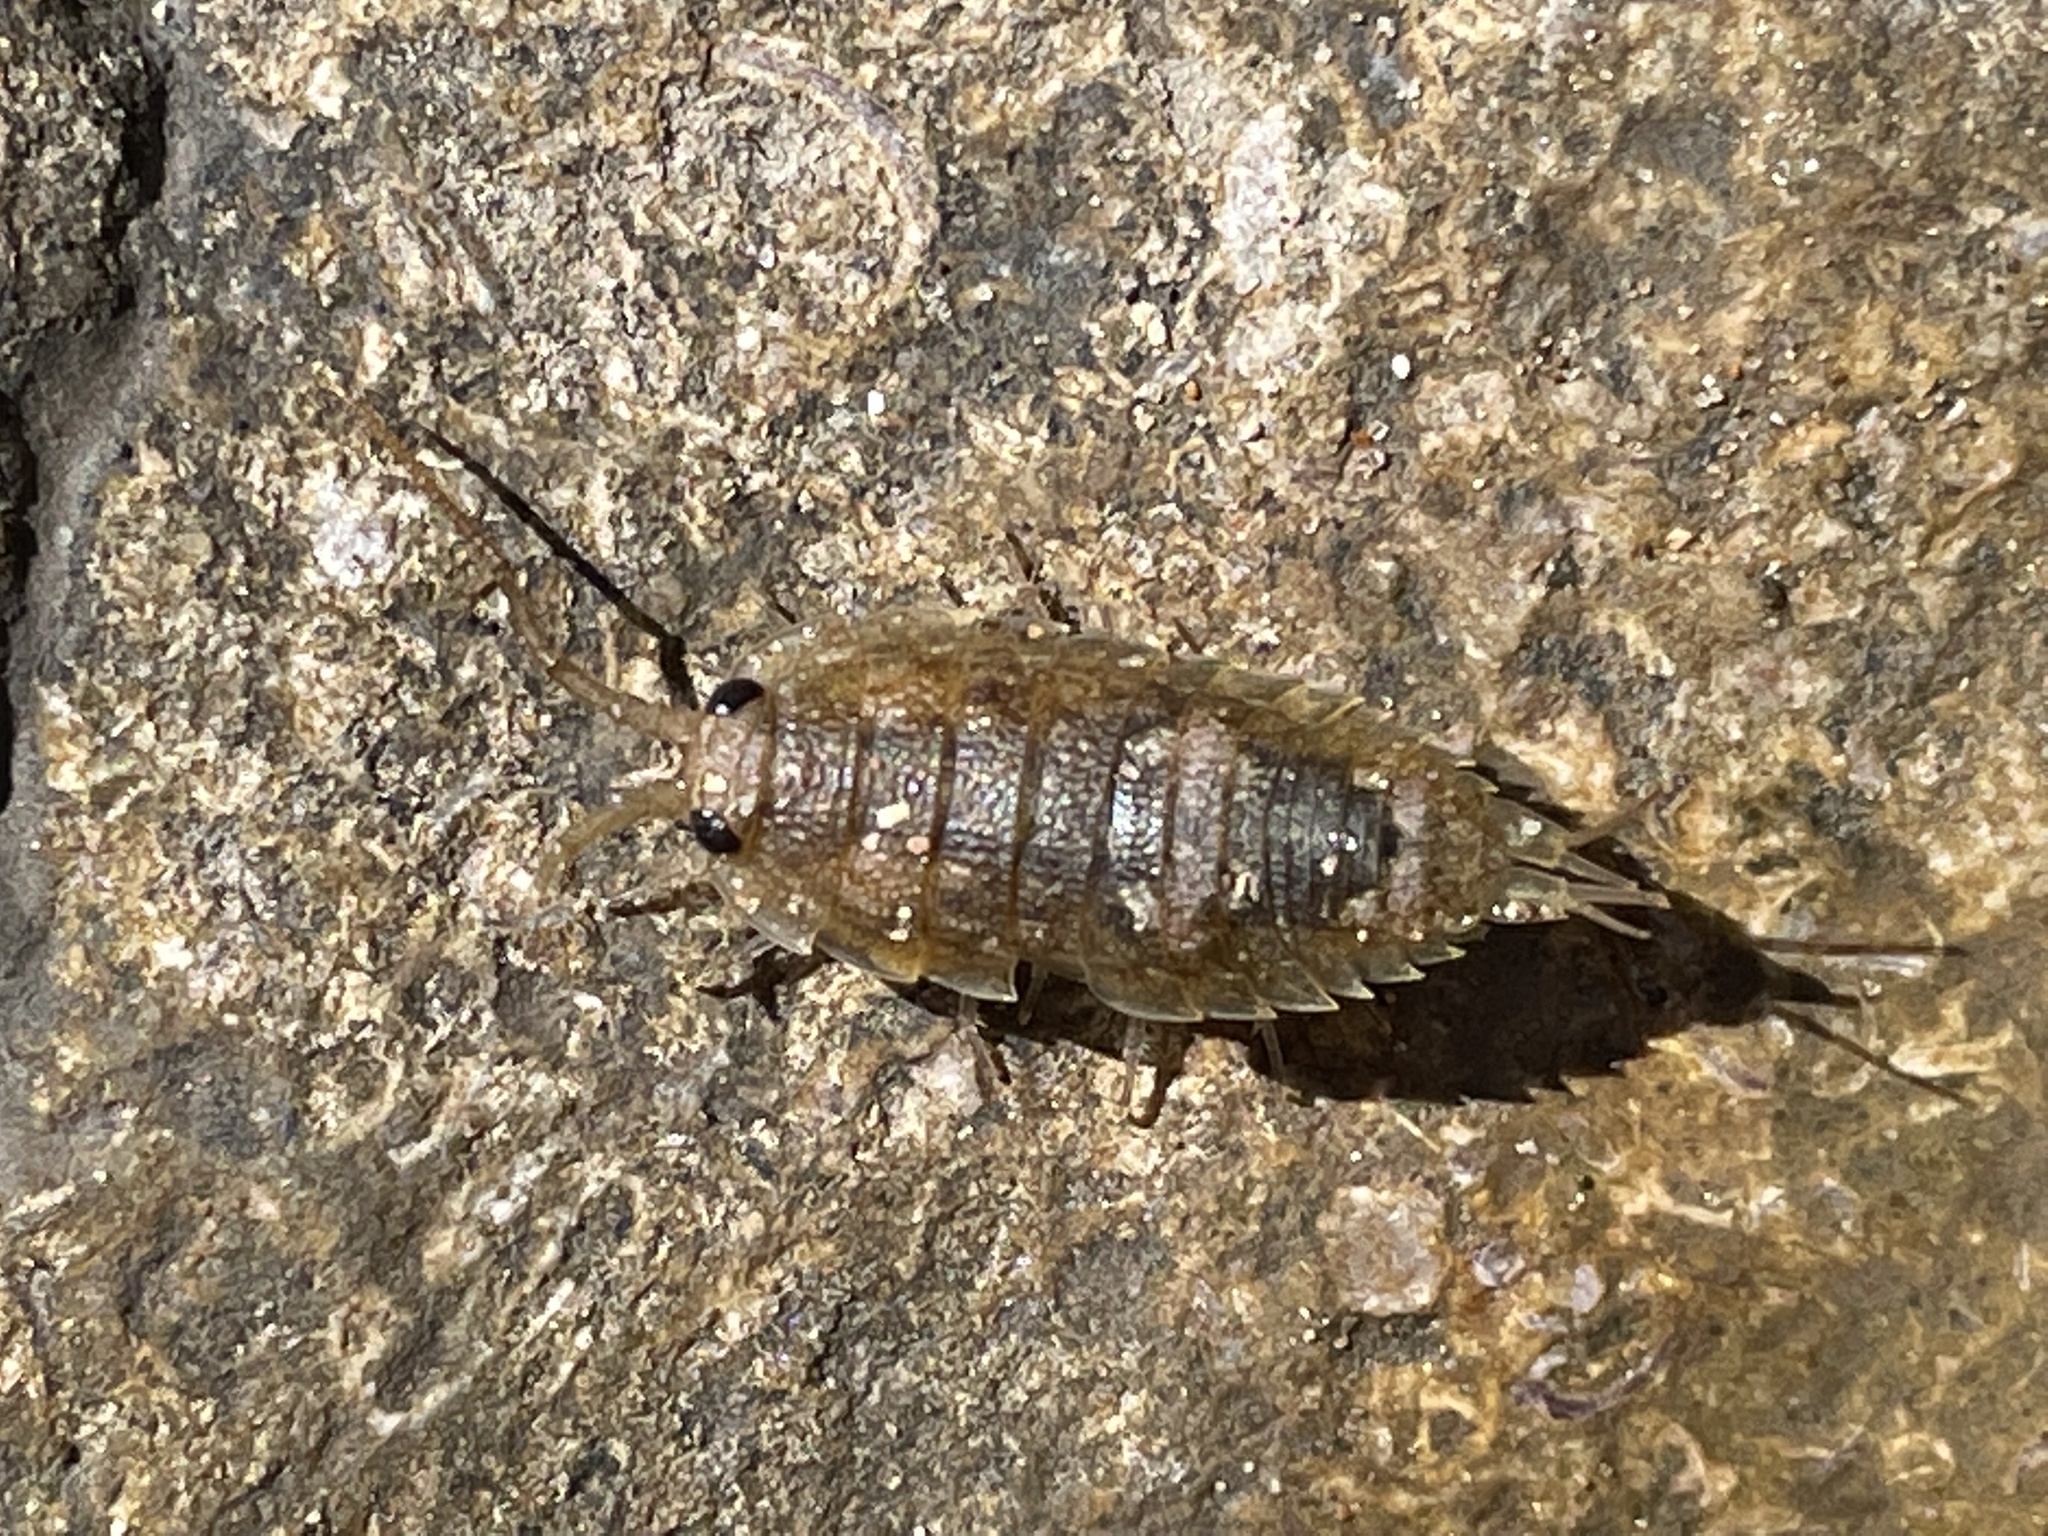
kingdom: Animalia
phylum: Arthropoda
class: Malacostraca
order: Isopoda
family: Ligiidae
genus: Ligia
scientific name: Ligia oceanica
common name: Sea slater
